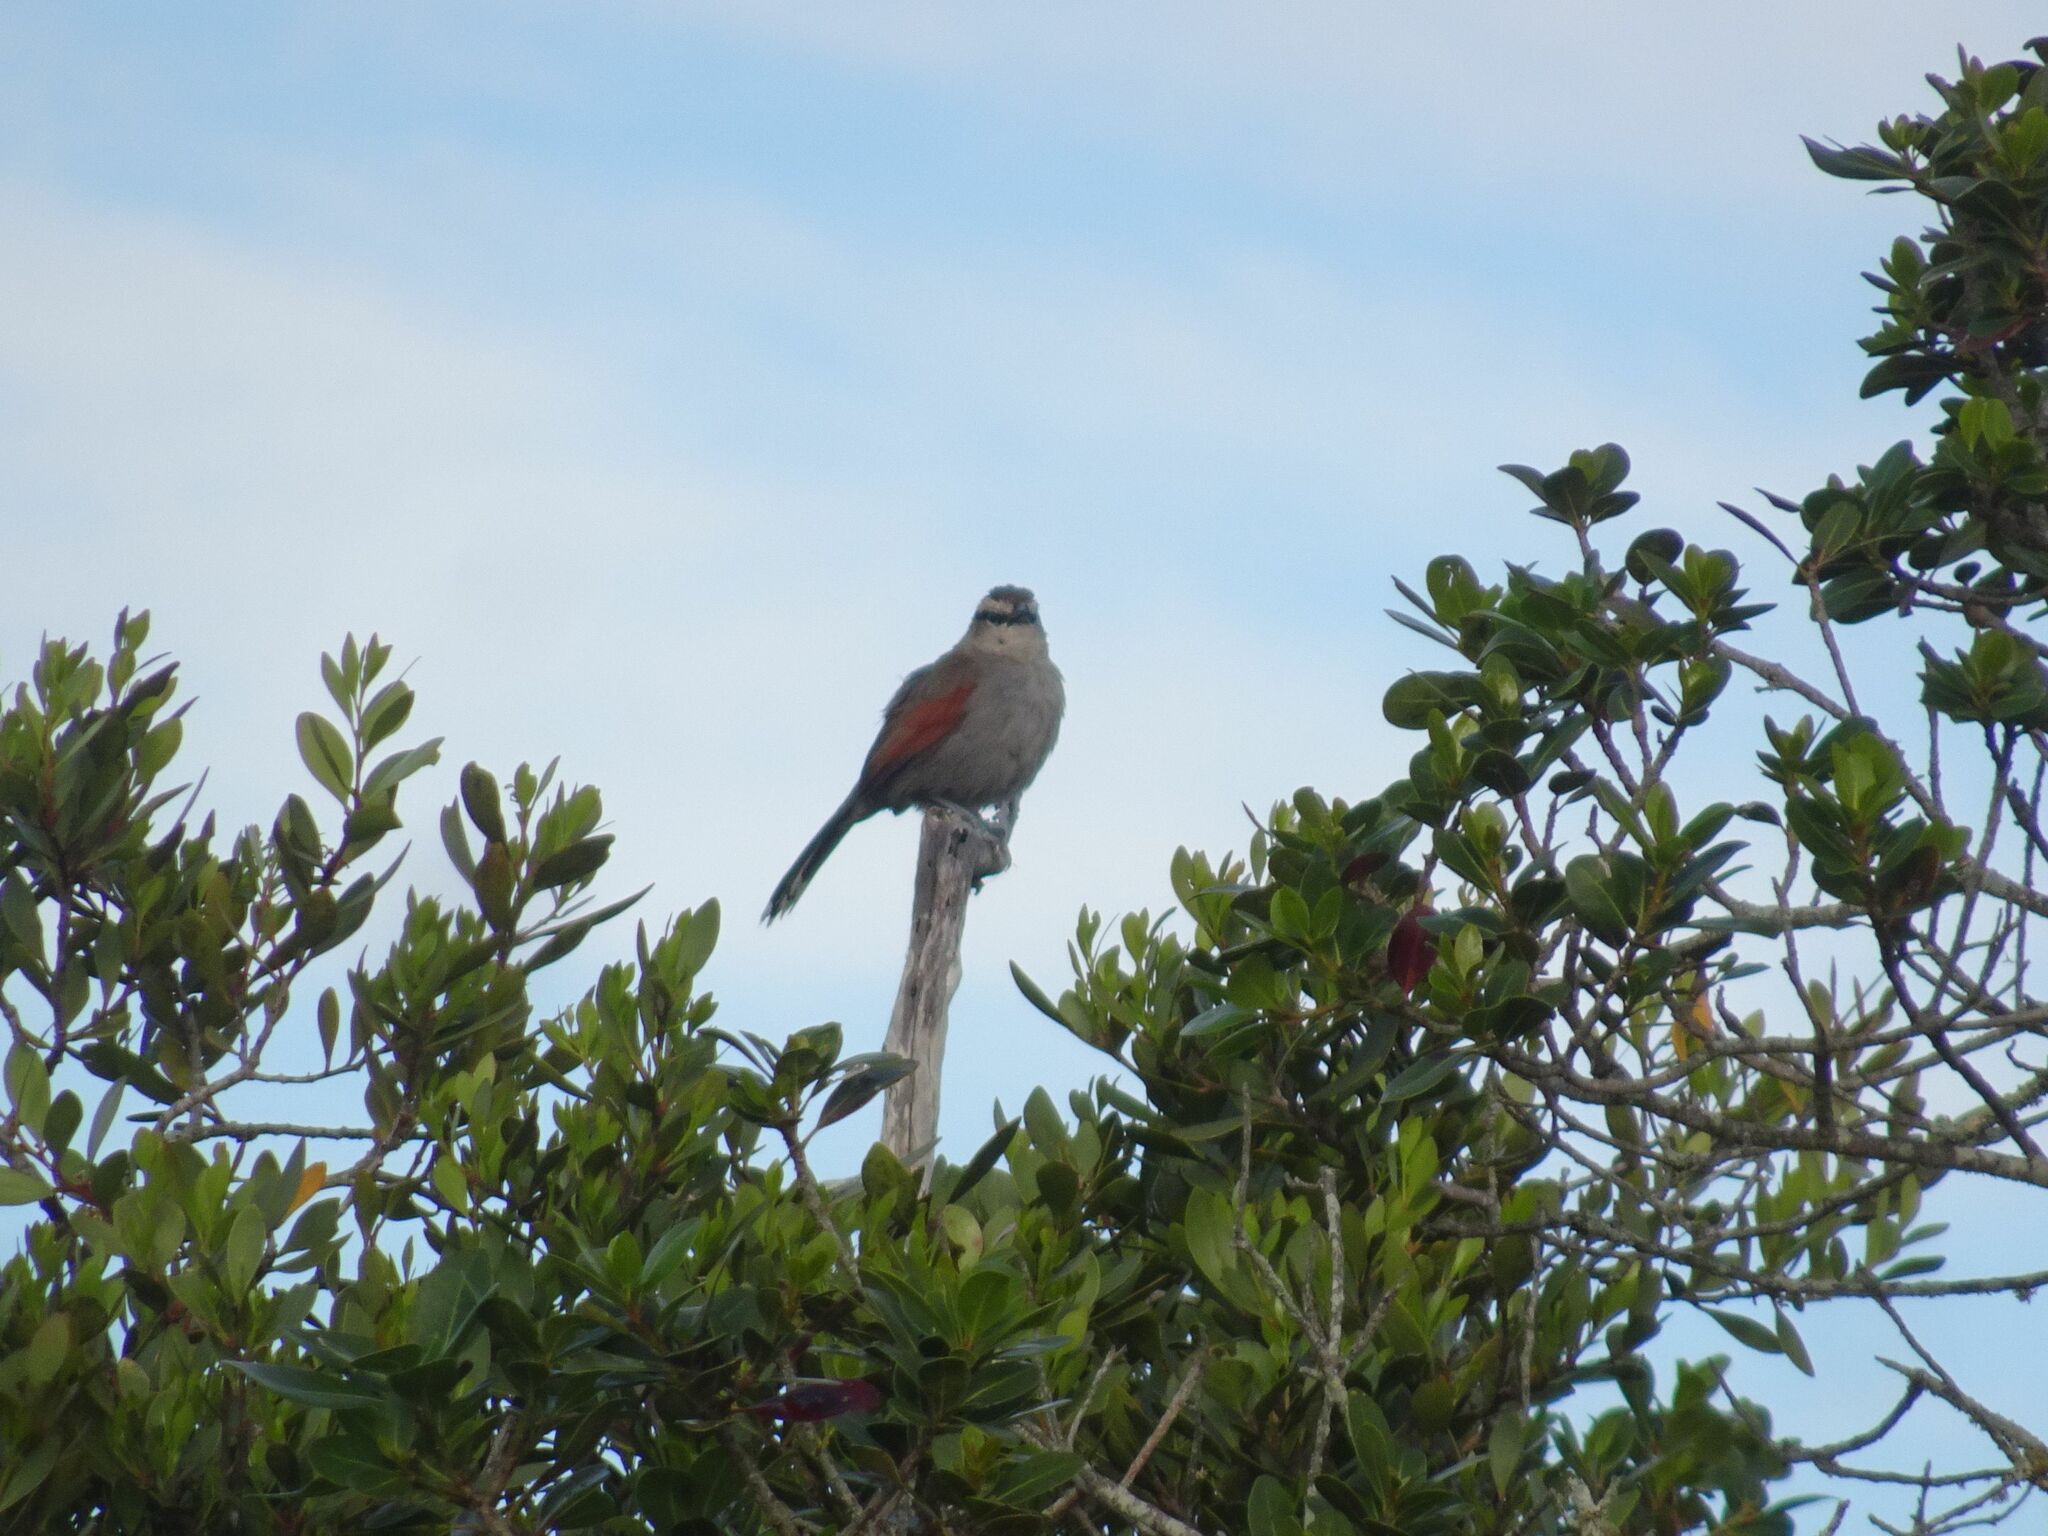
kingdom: Animalia
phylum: Chordata
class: Aves
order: Passeriformes
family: Malaconotidae
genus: Tchagra
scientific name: Tchagra tchagra
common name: Southern tchagra
